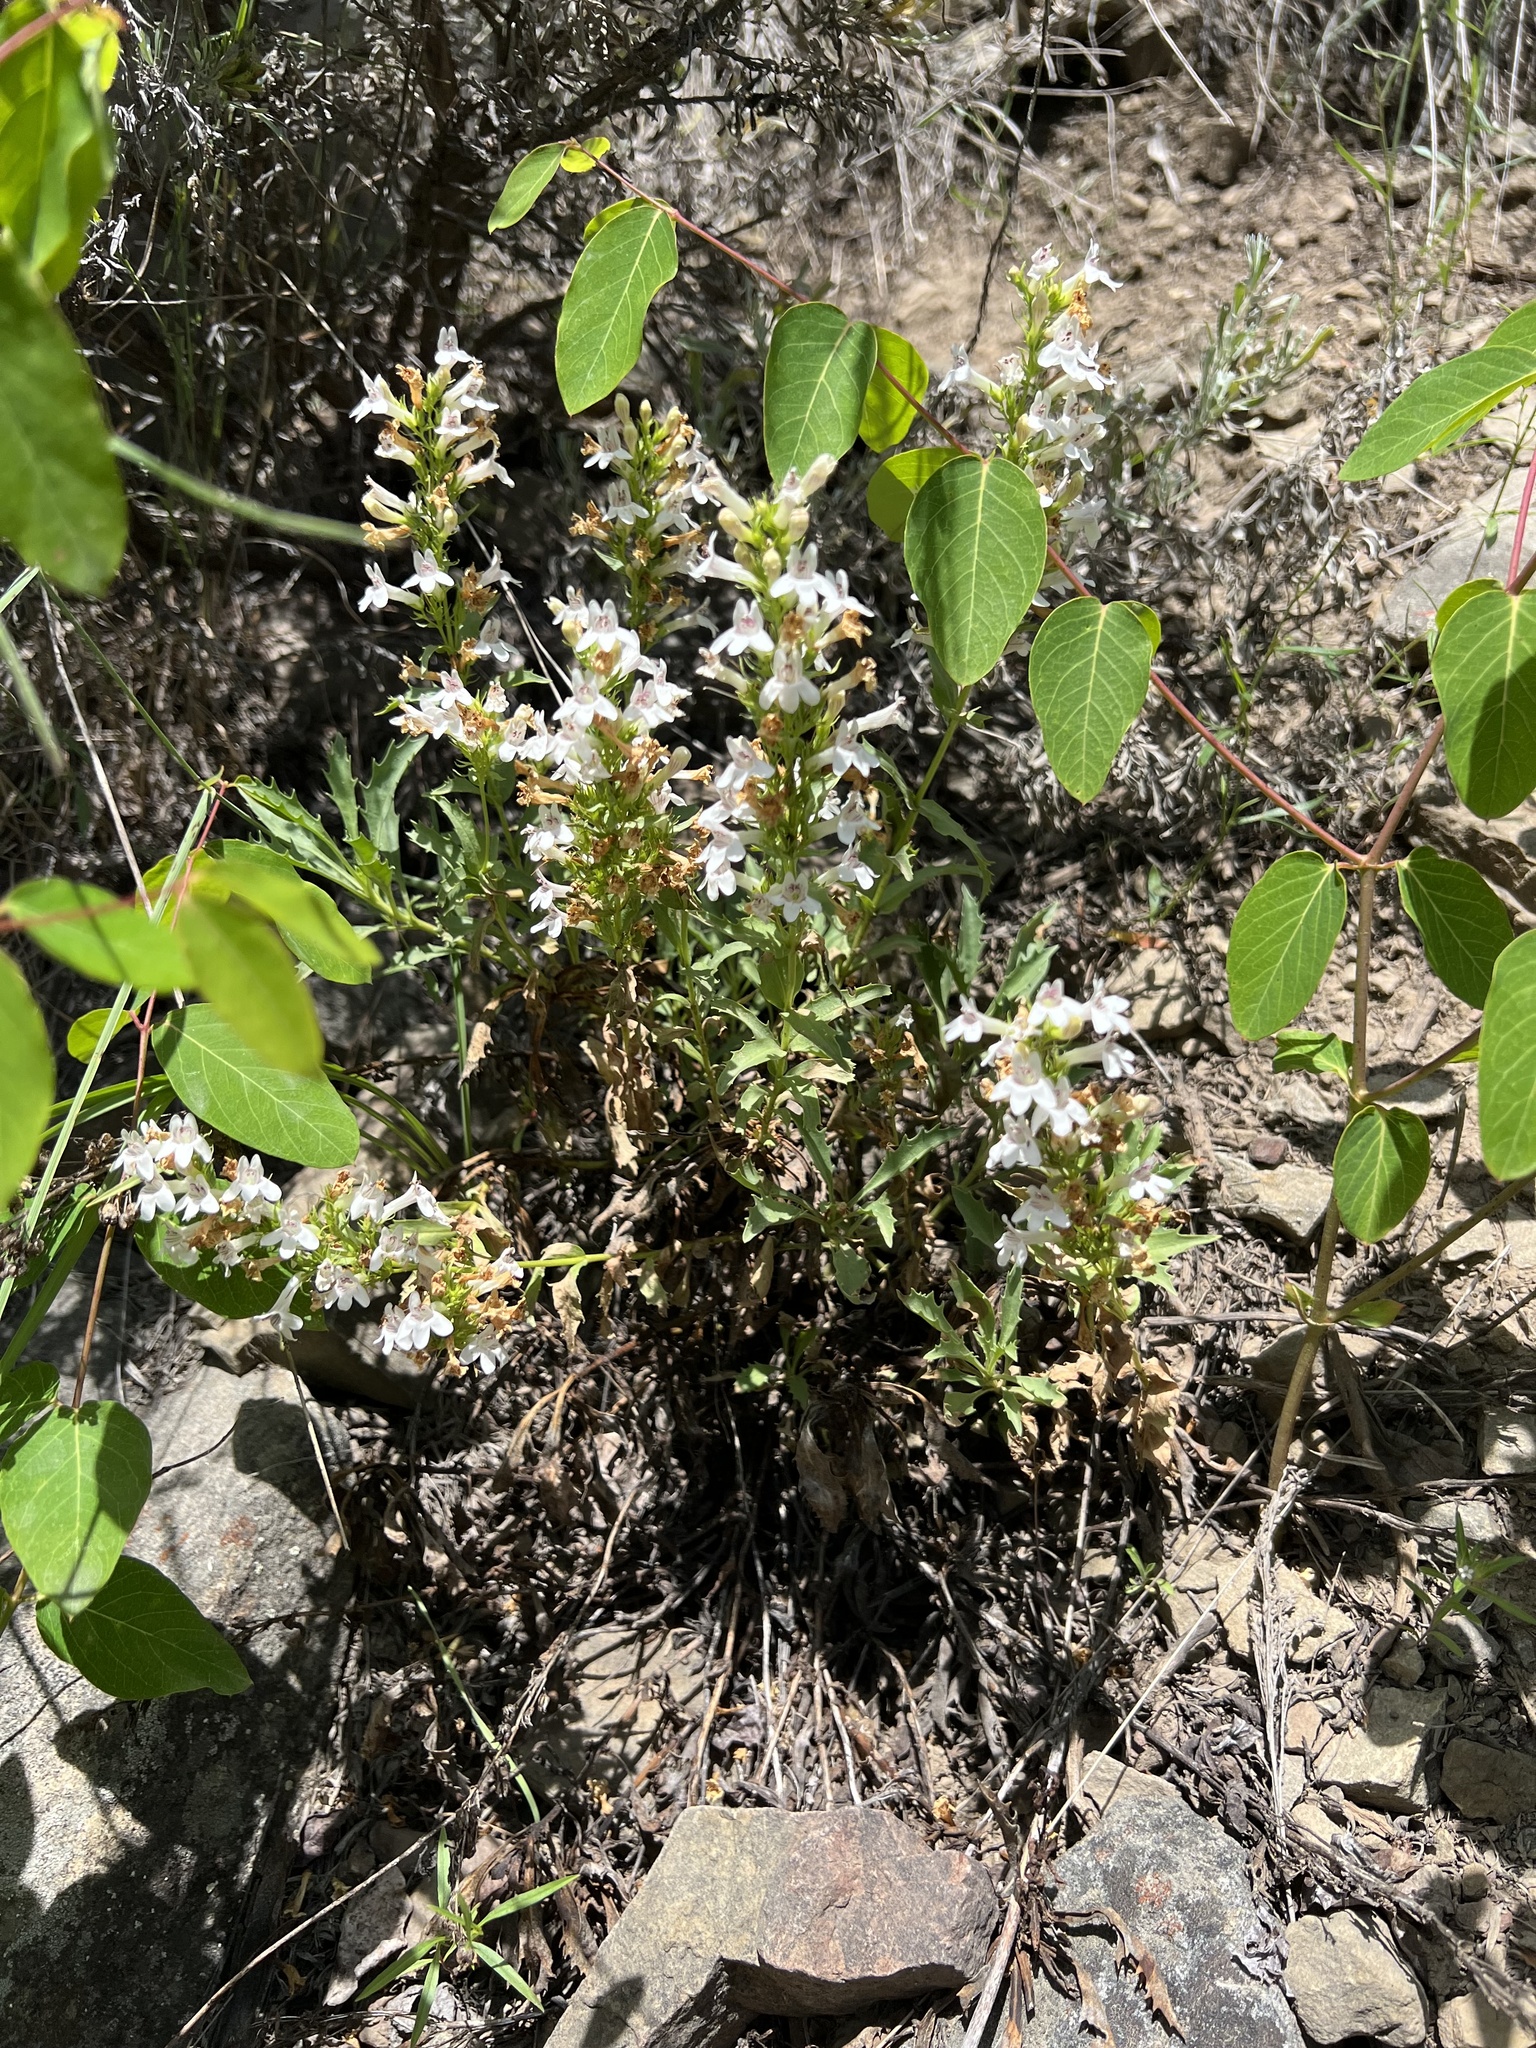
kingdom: Plantae
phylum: Tracheophyta
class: Magnoliopsida
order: Lamiales
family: Plantaginaceae
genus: Penstemon
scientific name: Penstemon deustus
